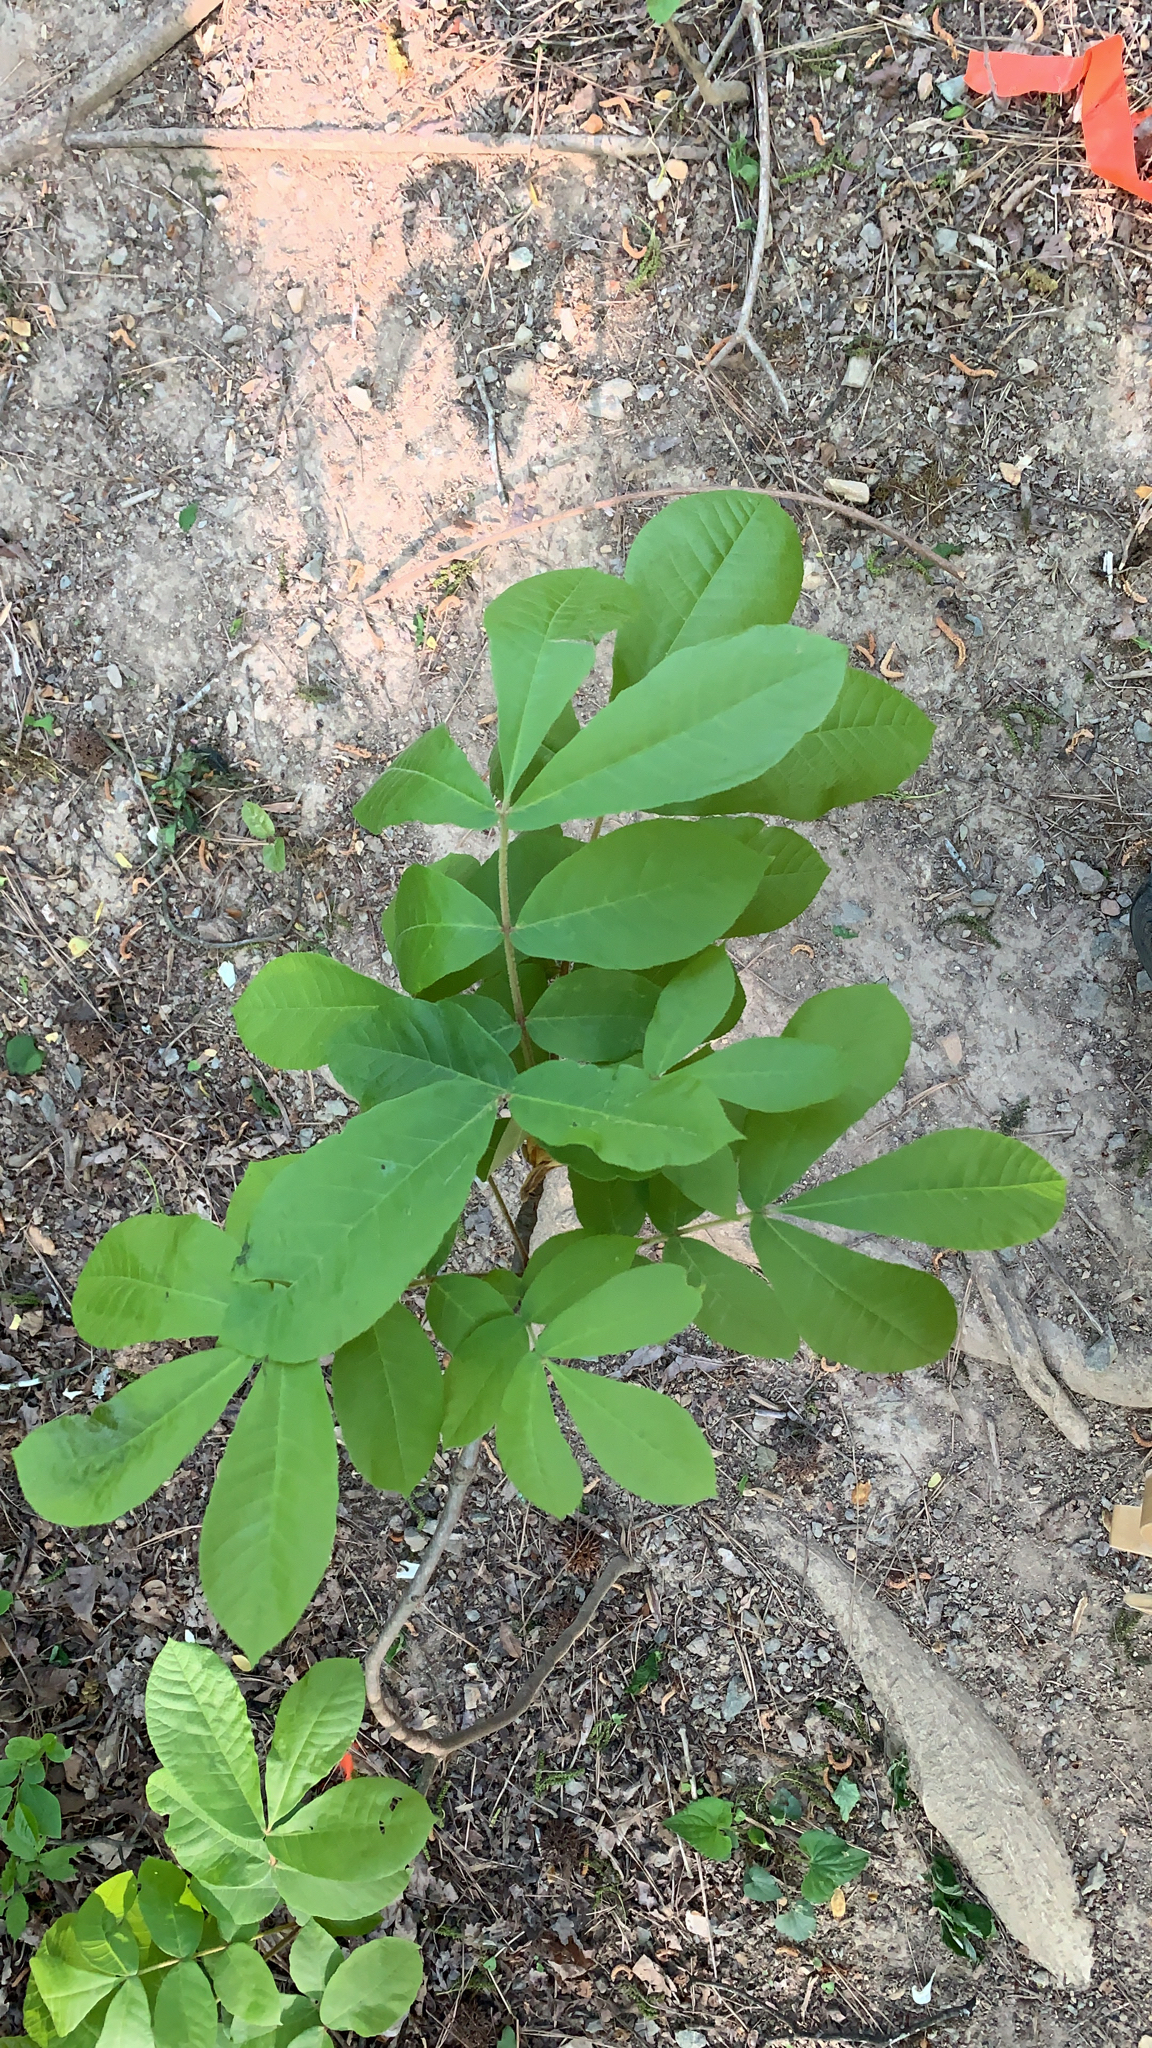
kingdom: Plantae
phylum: Tracheophyta
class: Magnoliopsida
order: Fagales
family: Juglandaceae
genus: Carya
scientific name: Carya alba
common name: Mockernut hickory
